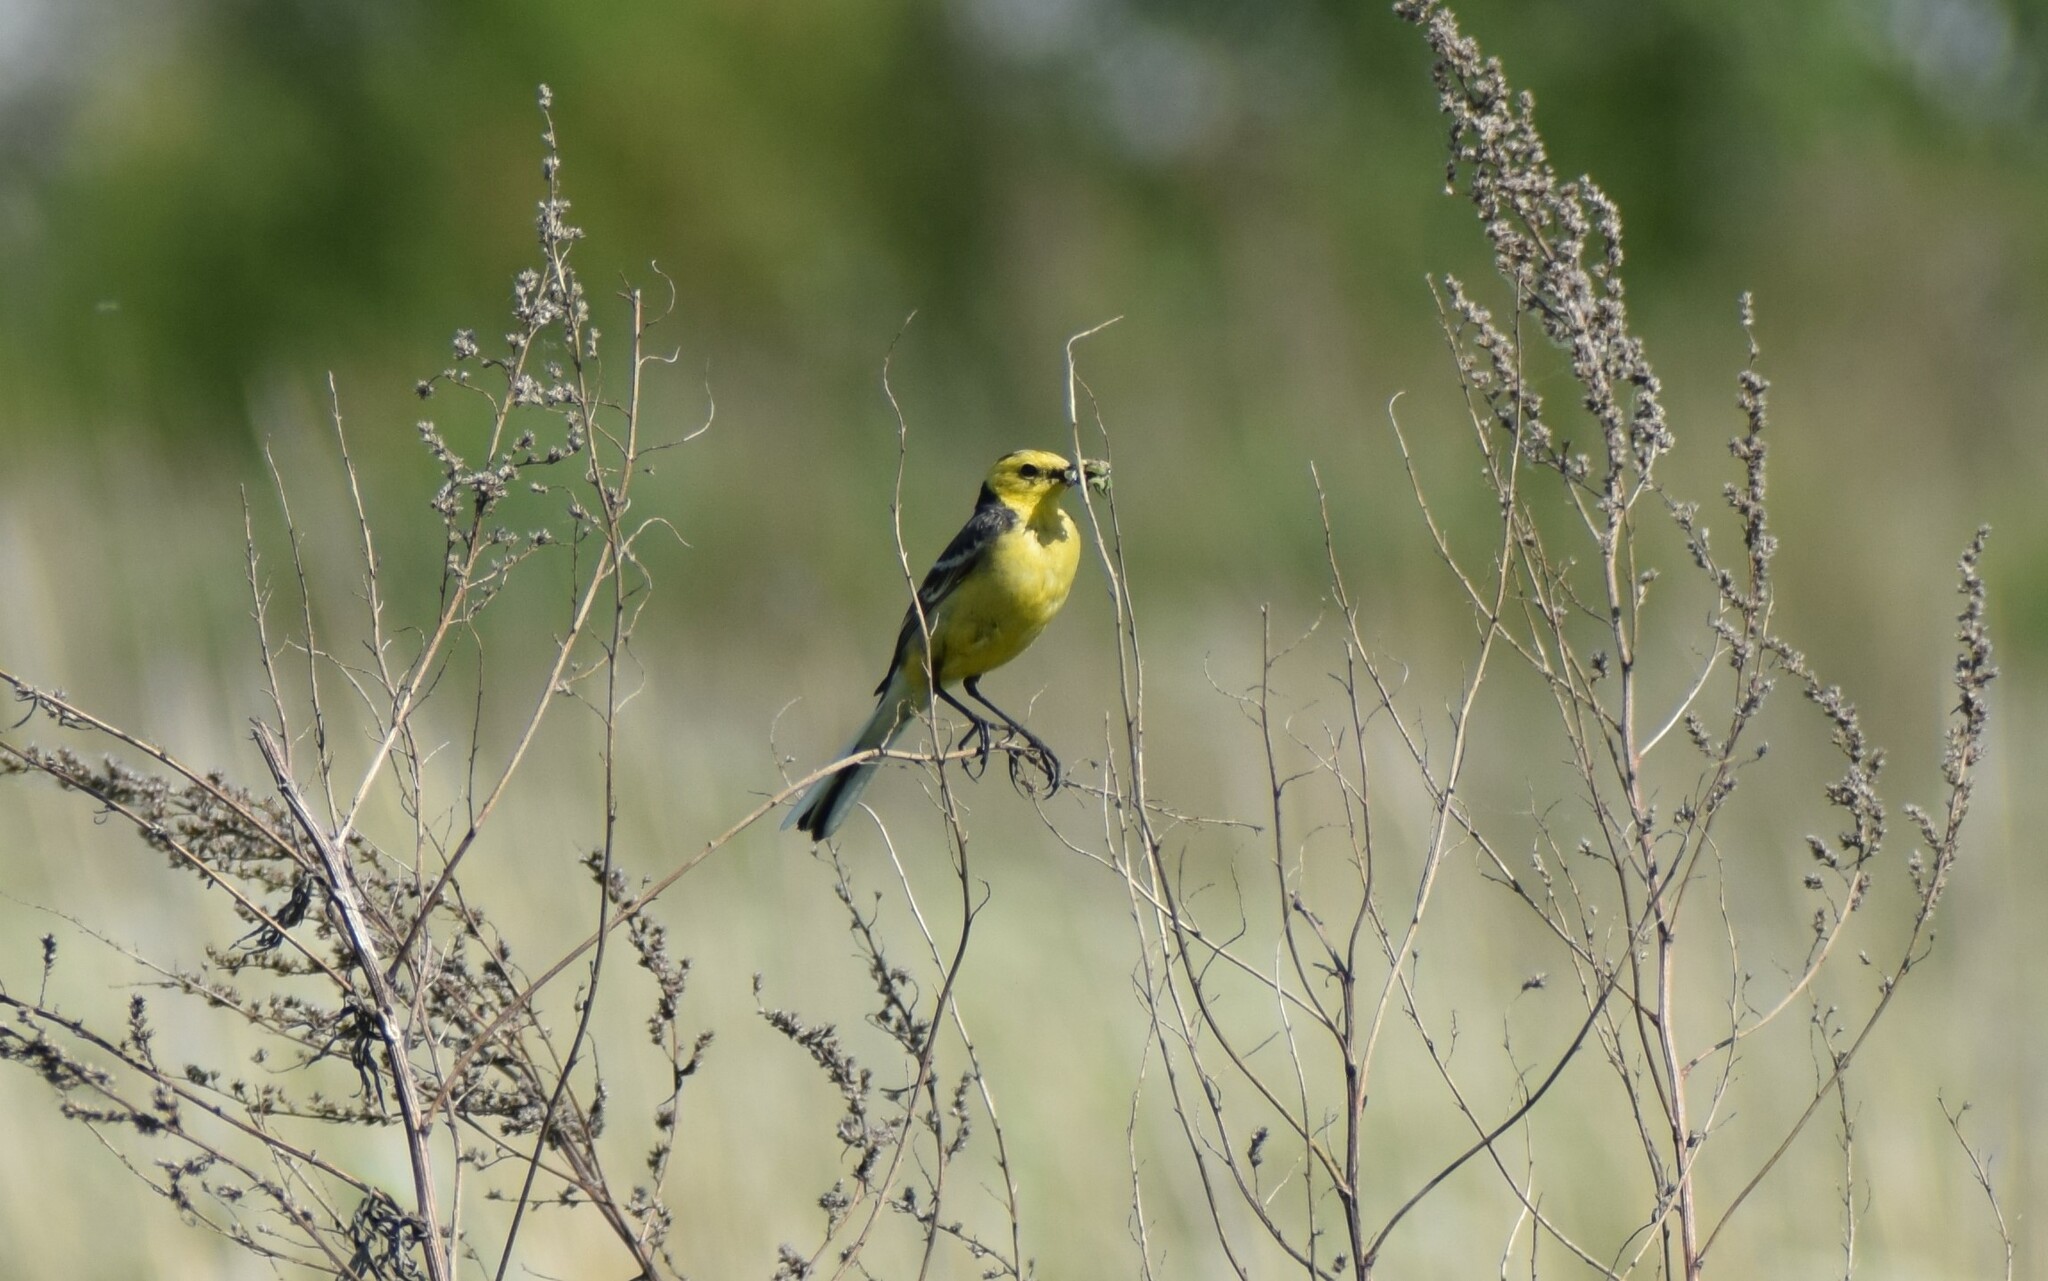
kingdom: Animalia
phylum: Chordata
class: Aves
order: Passeriformes
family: Motacillidae
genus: Motacilla
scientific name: Motacilla citreola
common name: Citrine wagtail
